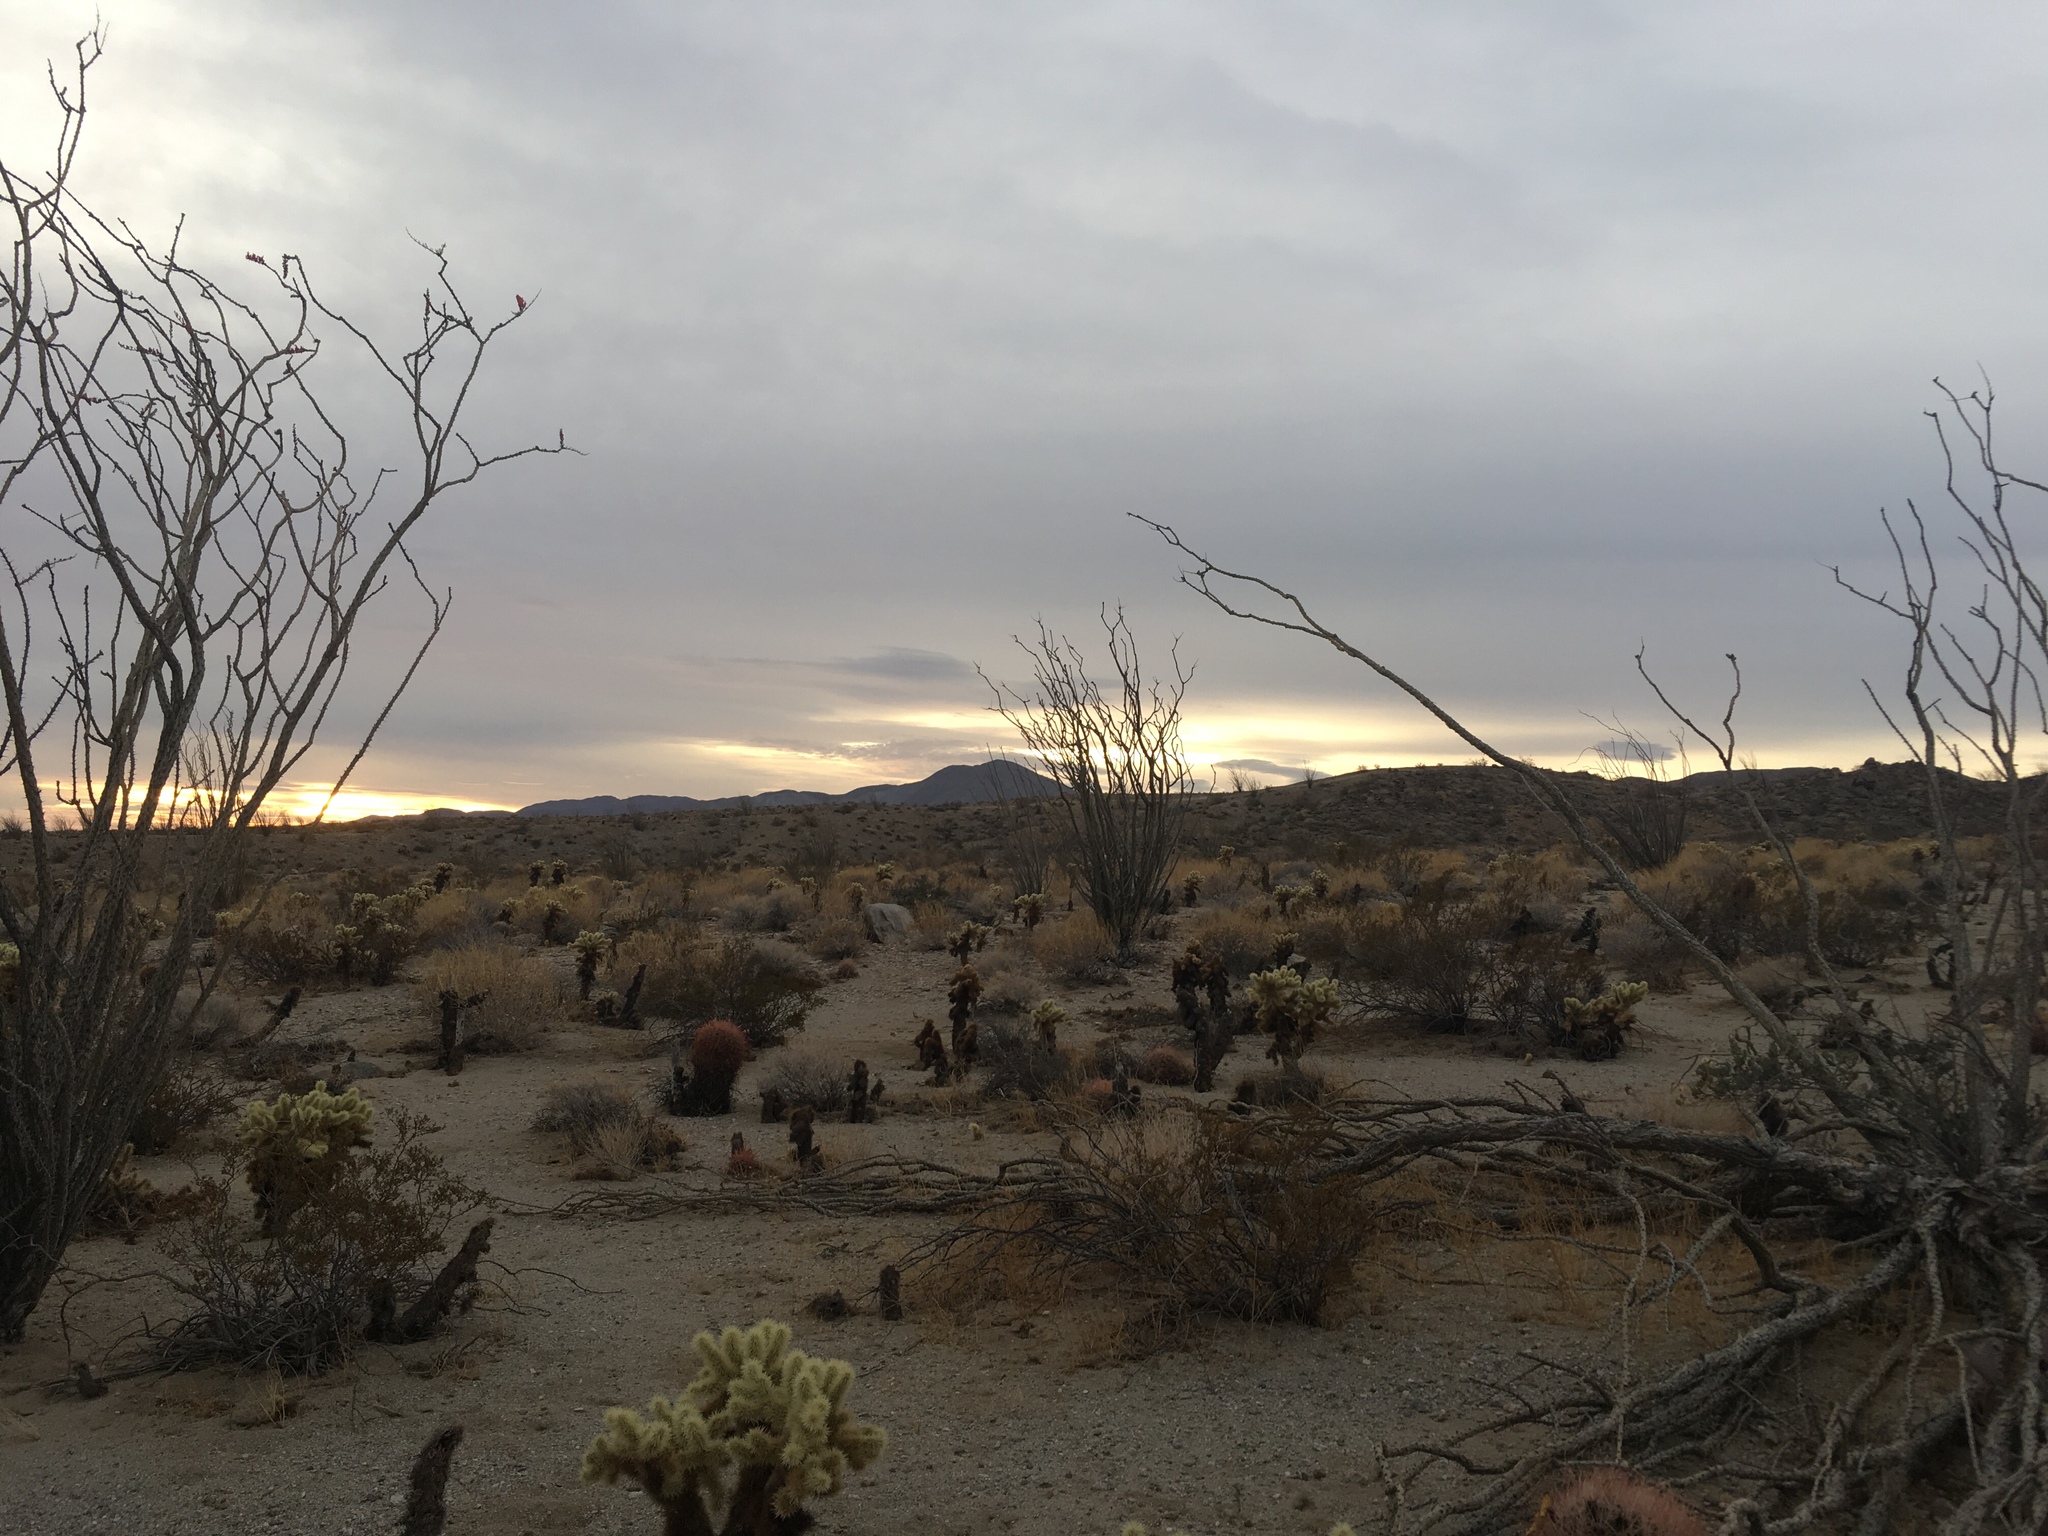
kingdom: Plantae
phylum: Tracheophyta
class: Magnoliopsida
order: Ericales
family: Fouquieriaceae
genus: Fouquieria
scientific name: Fouquieria splendens
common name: Vine-cactus
